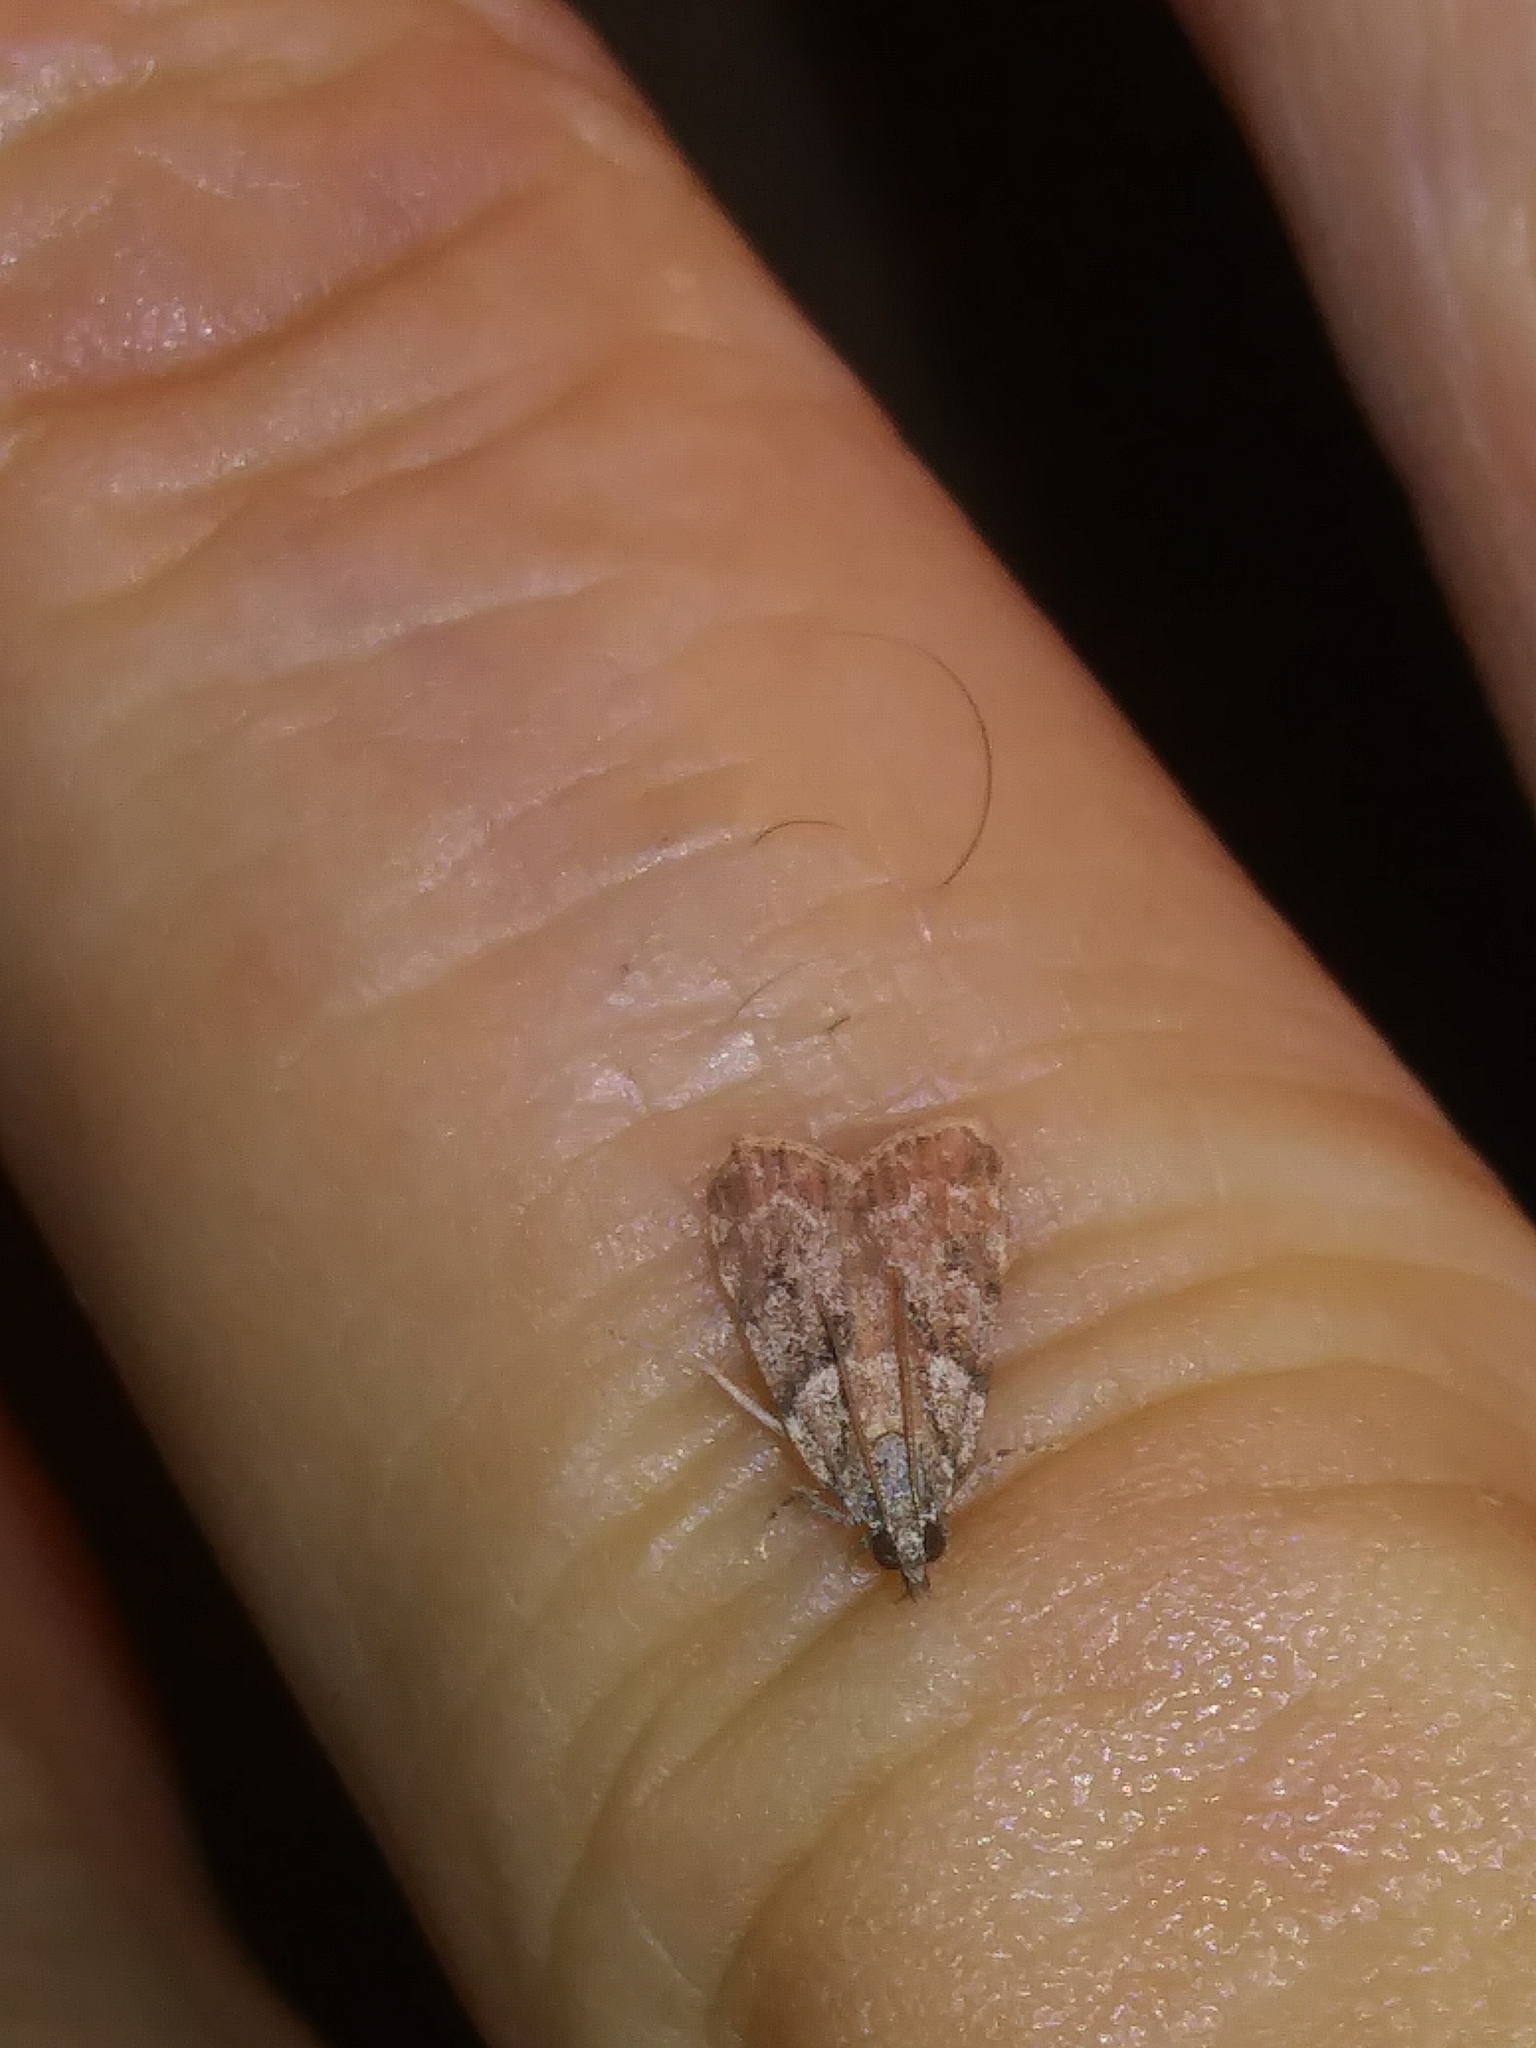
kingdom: Animalia
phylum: Arthropoda
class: Insecta
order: Lepidoptera
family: Crambidae
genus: Scoparia
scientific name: Scoparia biplagialis
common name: Double-striped scoparia moth
